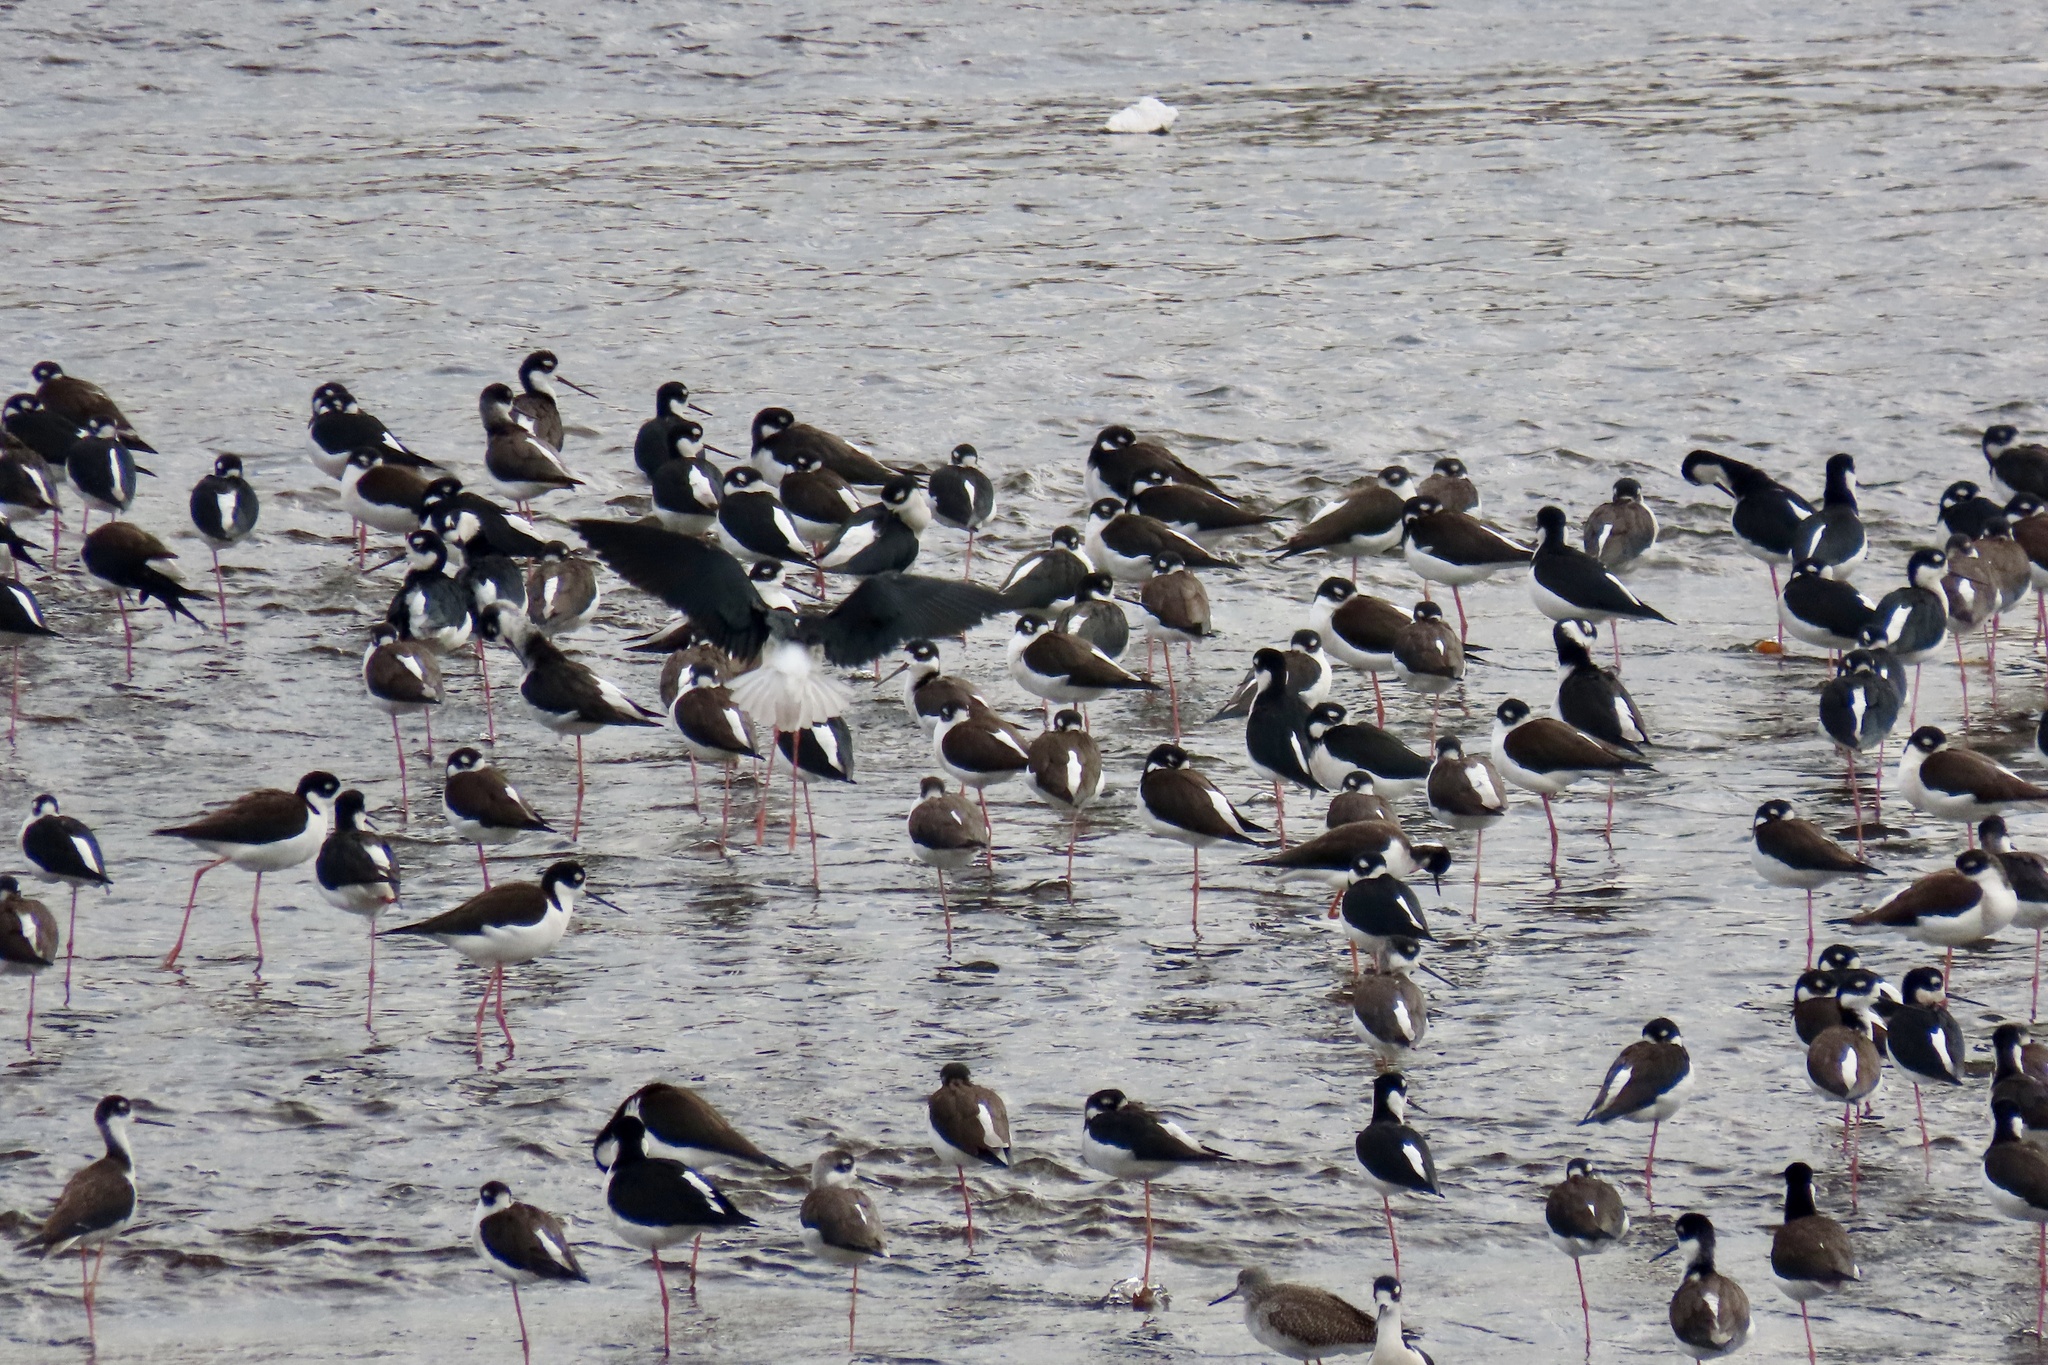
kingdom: Animalia
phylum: Chordata
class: Aves
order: Charadriiformes
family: Recurvirostridae
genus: Himantopus
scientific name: Himantopus mexicanus
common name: Black-necked stilt
